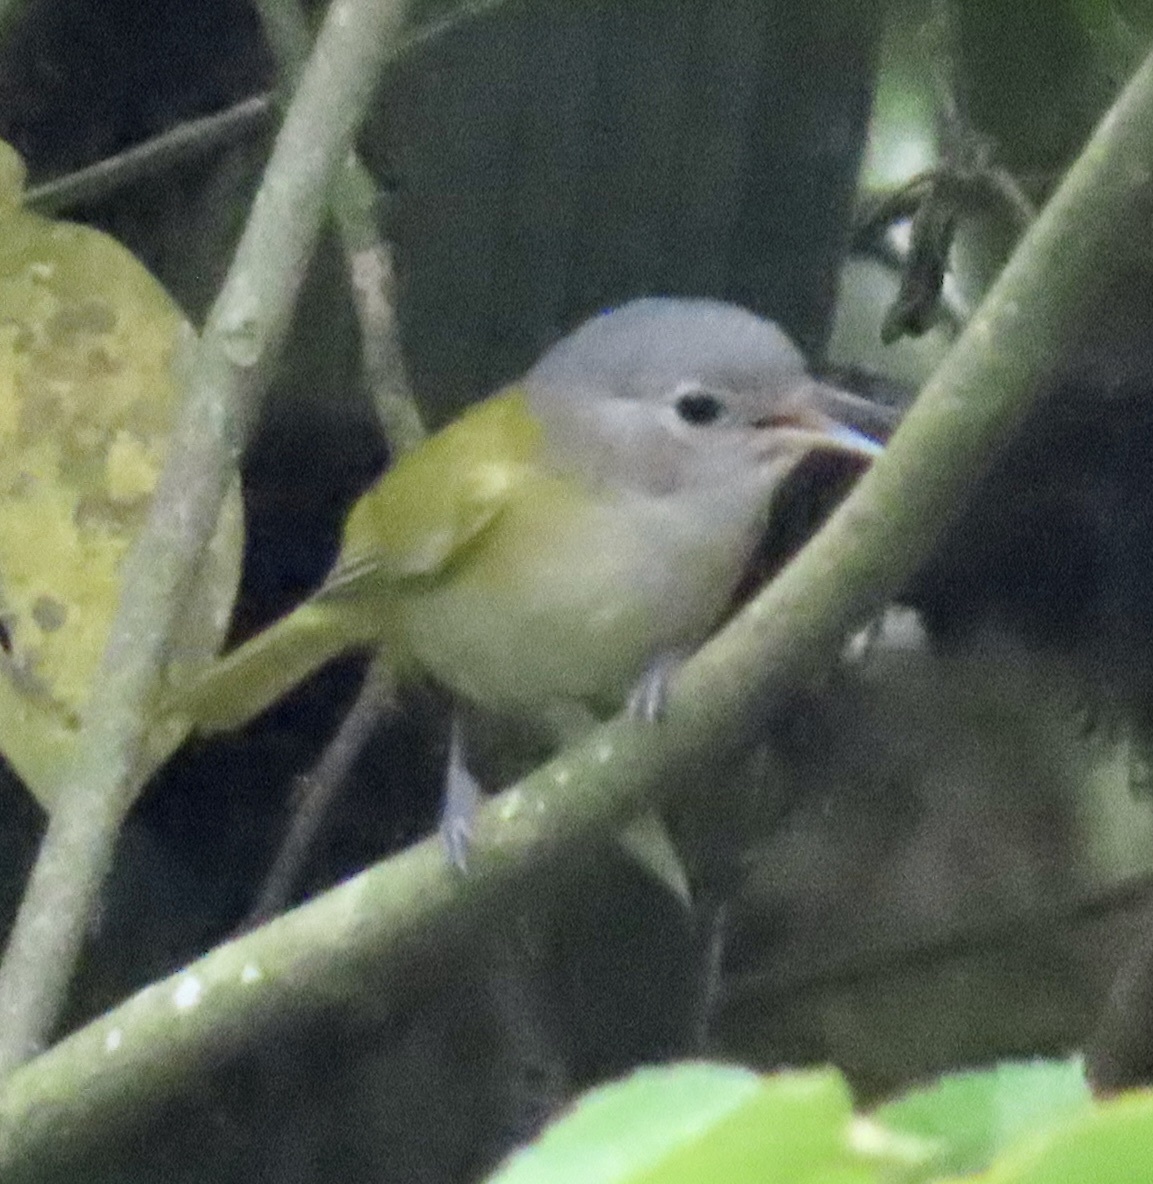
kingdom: Animalia
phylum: Chordata
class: Aves
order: Passeriformes
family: Vireonidae
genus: Hylophilus
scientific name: Hylophilus decurtatus
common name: Lesser greenlet
